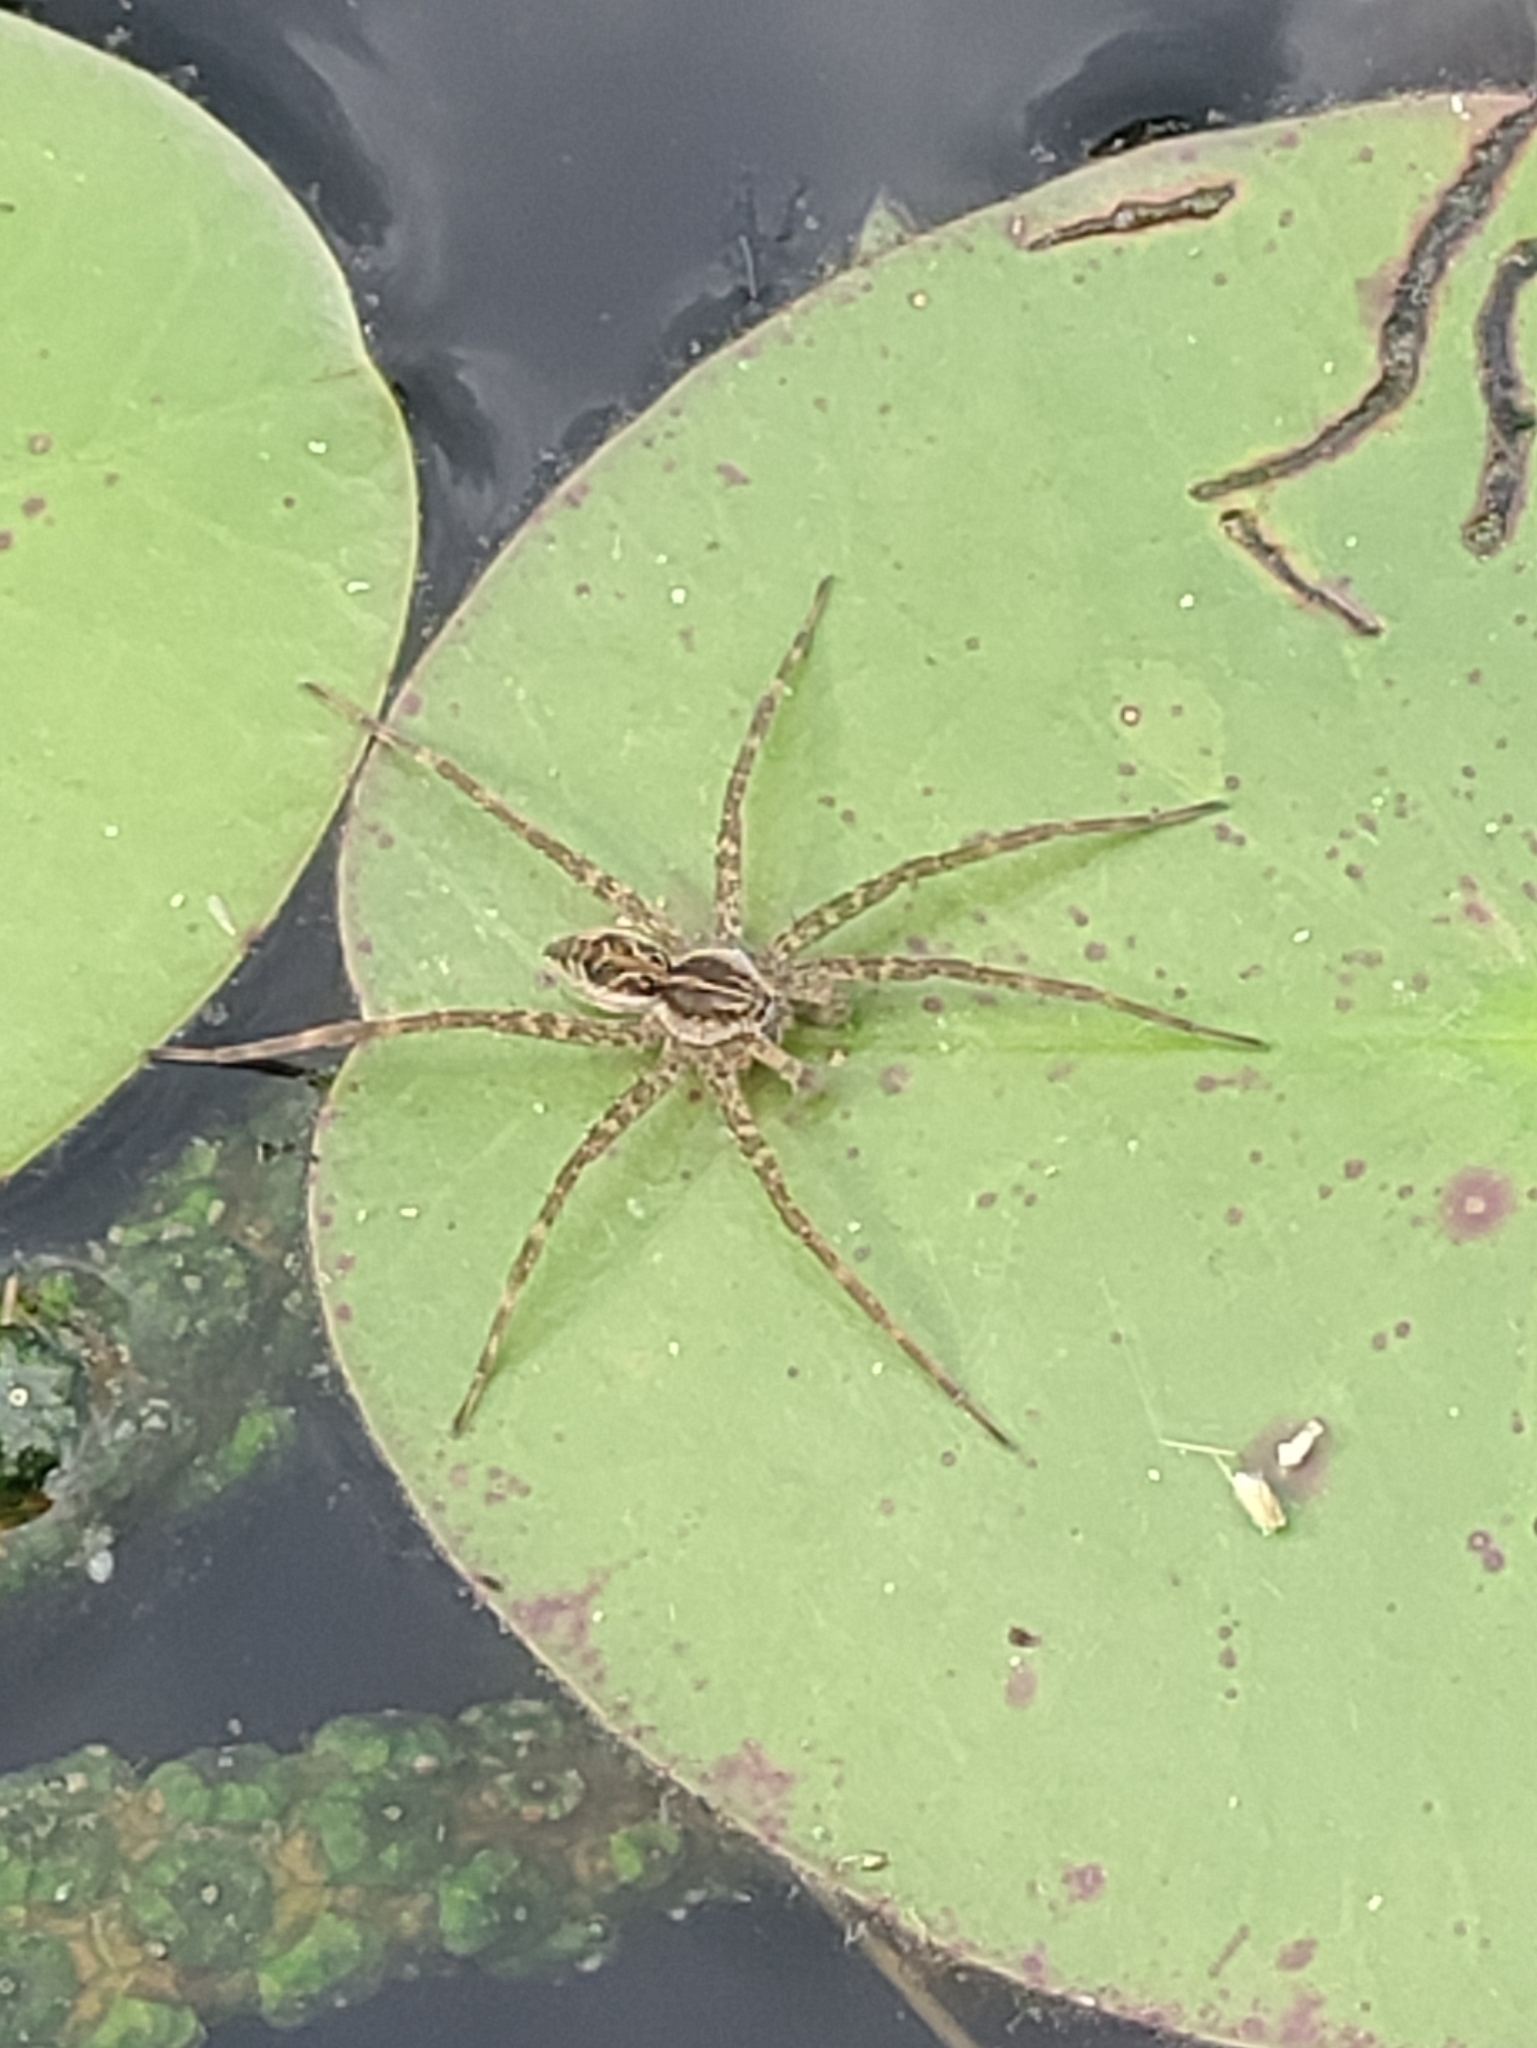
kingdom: Animalia
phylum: Arthropoda
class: Arachnida
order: Araneae
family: Pisauridae
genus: Dolomedes
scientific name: Dolomedes scriptus
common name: Striped fishing spider
